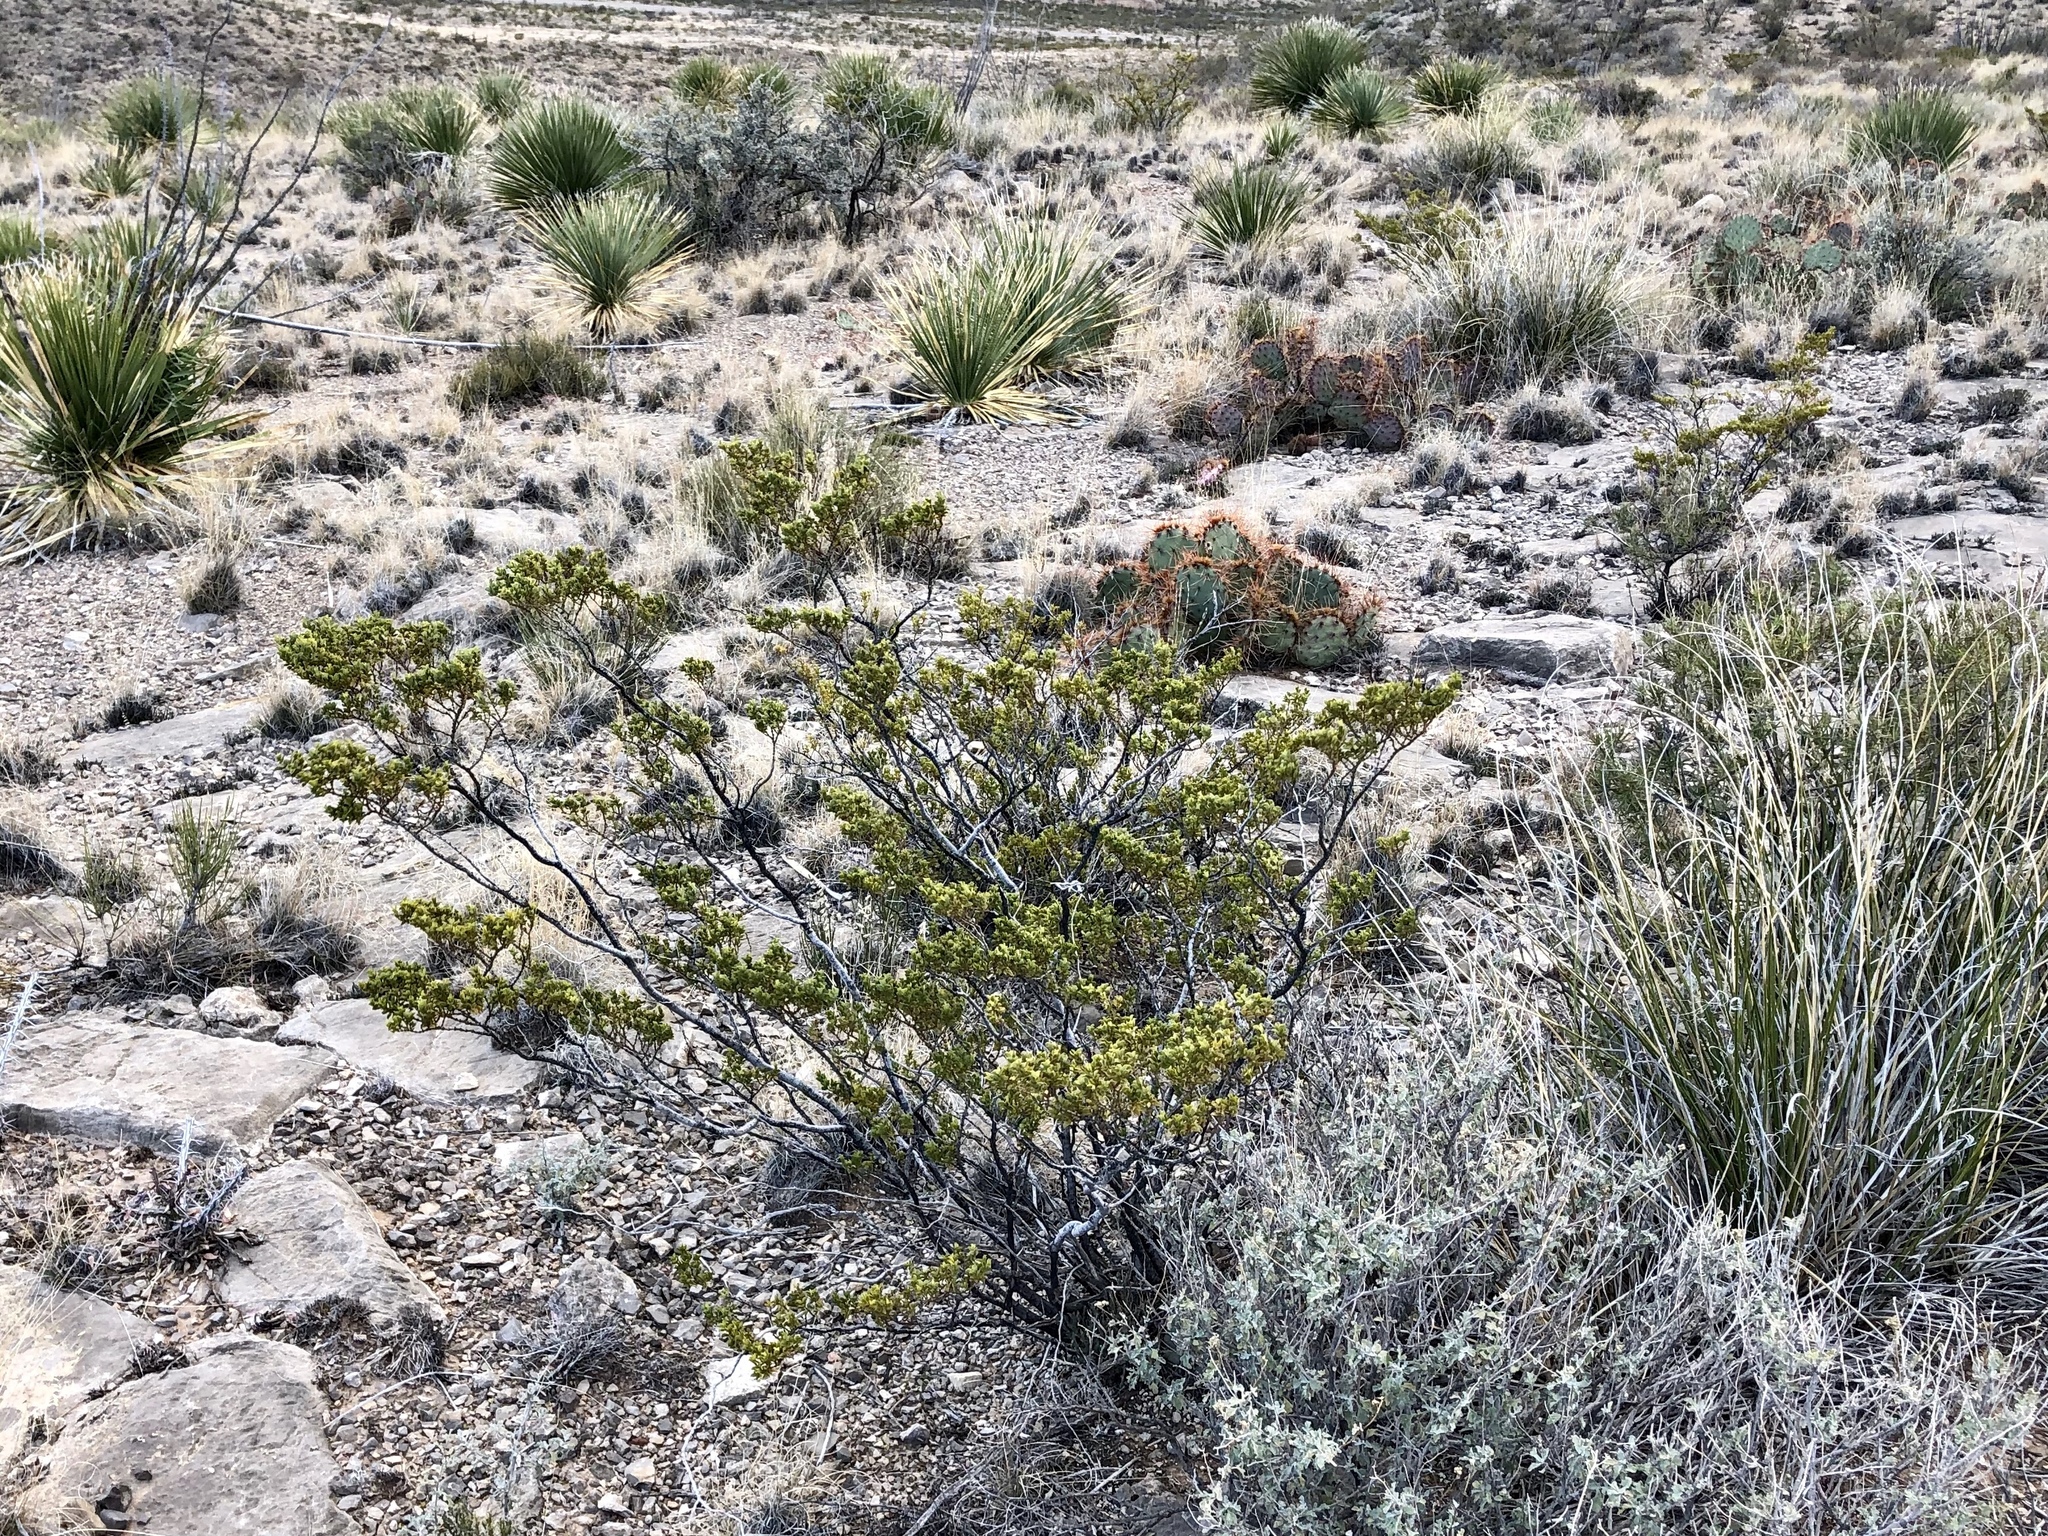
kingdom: Plantae
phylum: Tracheophyta
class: Magnoliopsida
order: Zygophyllales
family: Zygophyllaceae
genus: Larrea
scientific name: Larrea tridentata
